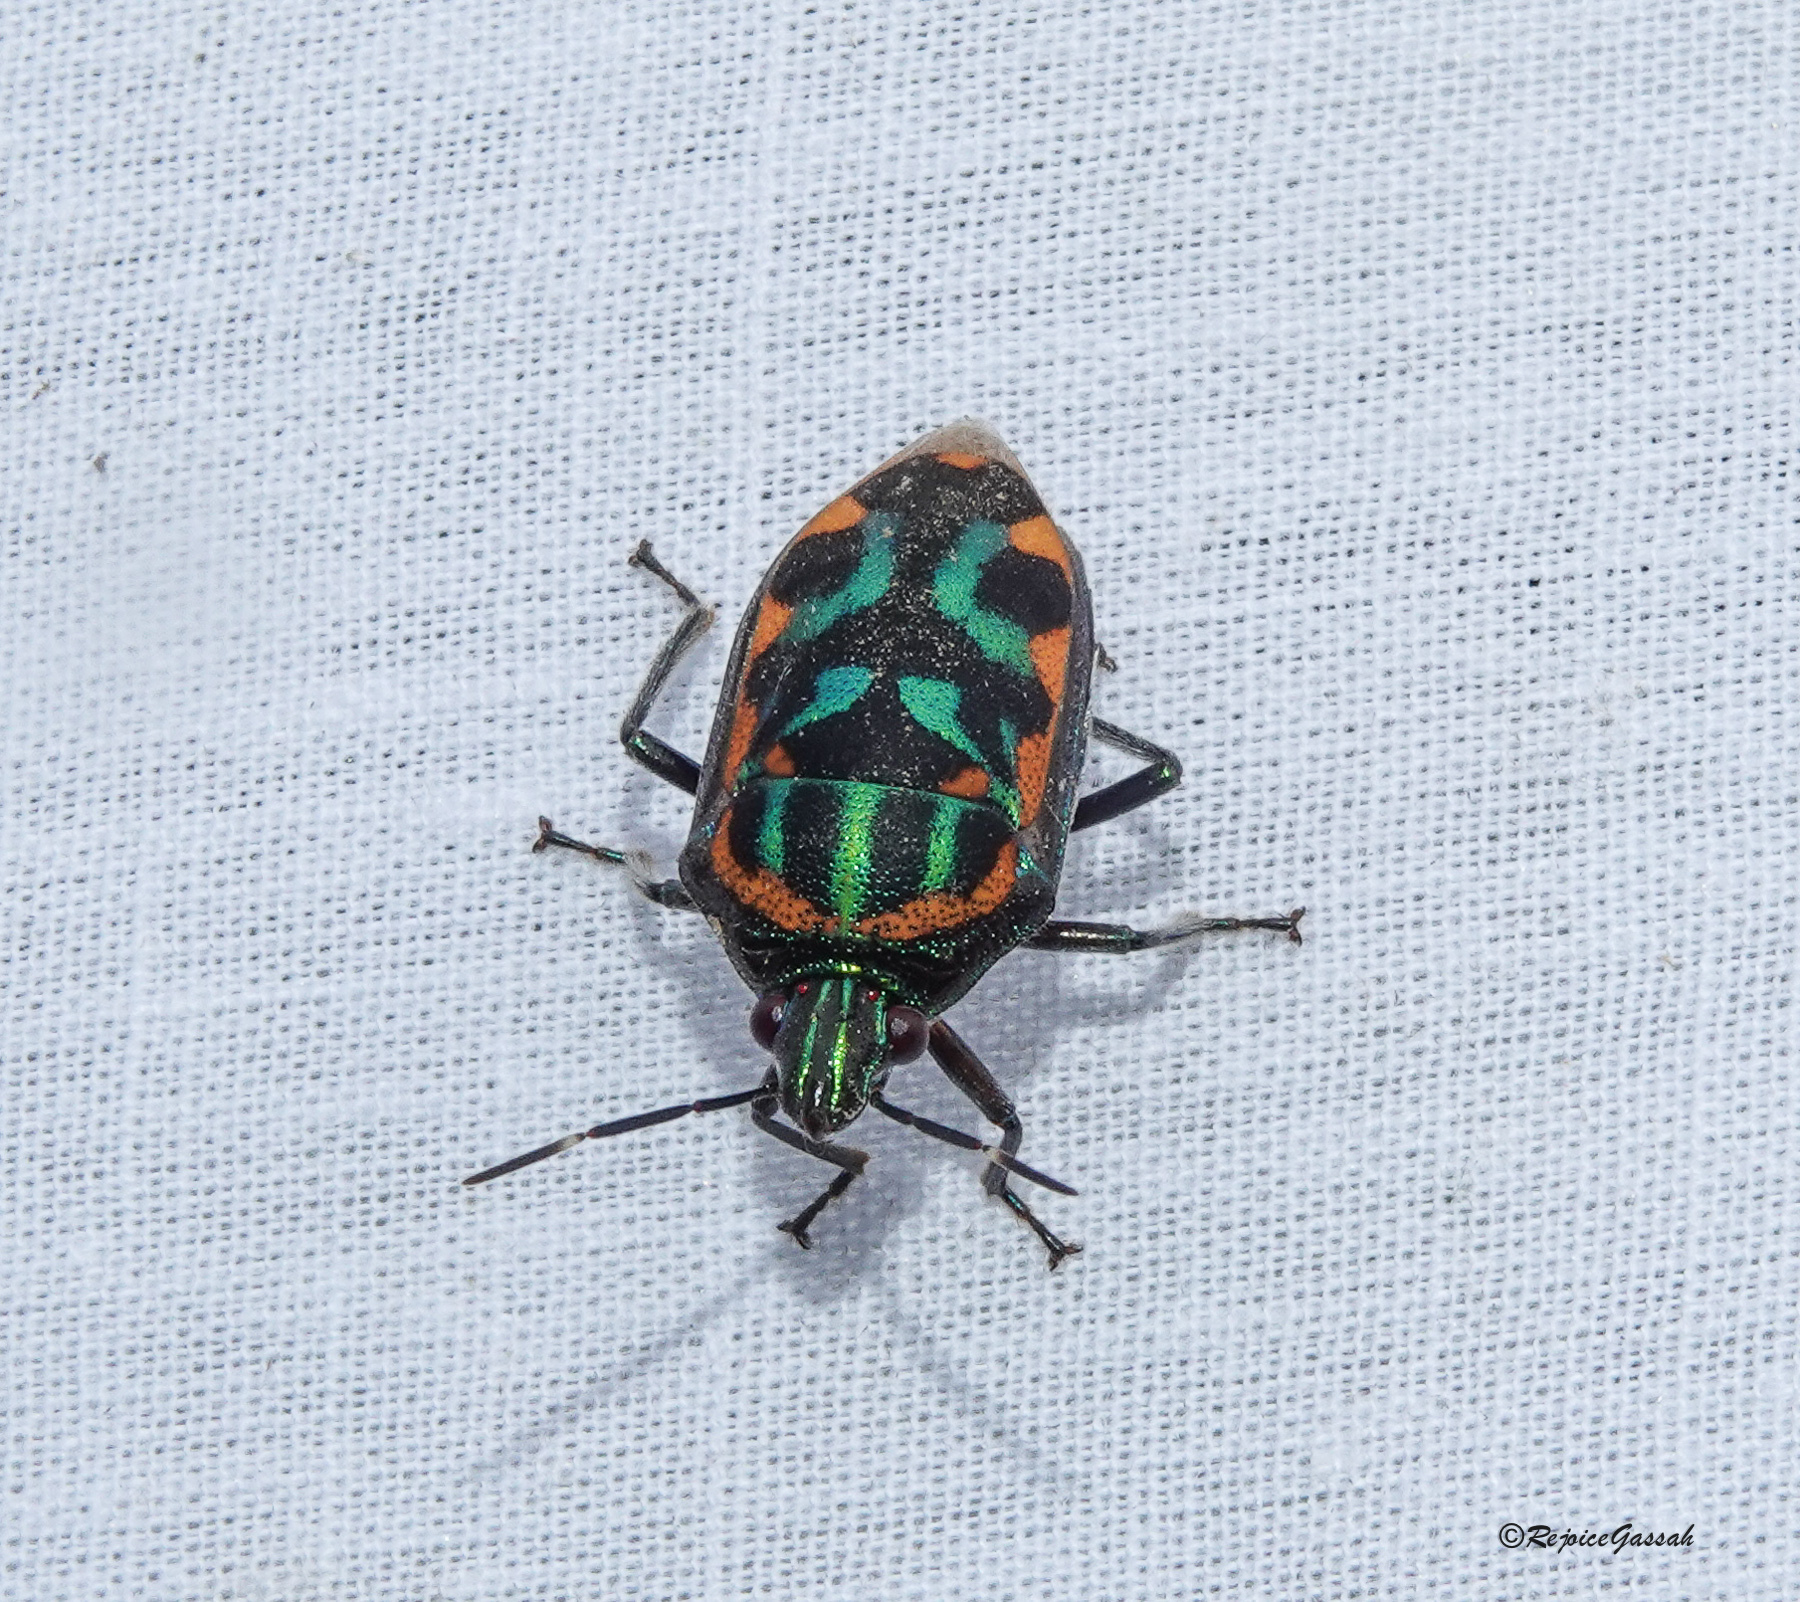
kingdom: Animalia
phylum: Arthropoda
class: Insecta
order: Hemiptera
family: Scutelleridae
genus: Tetrarthria
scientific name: Tetrarthria variegata
